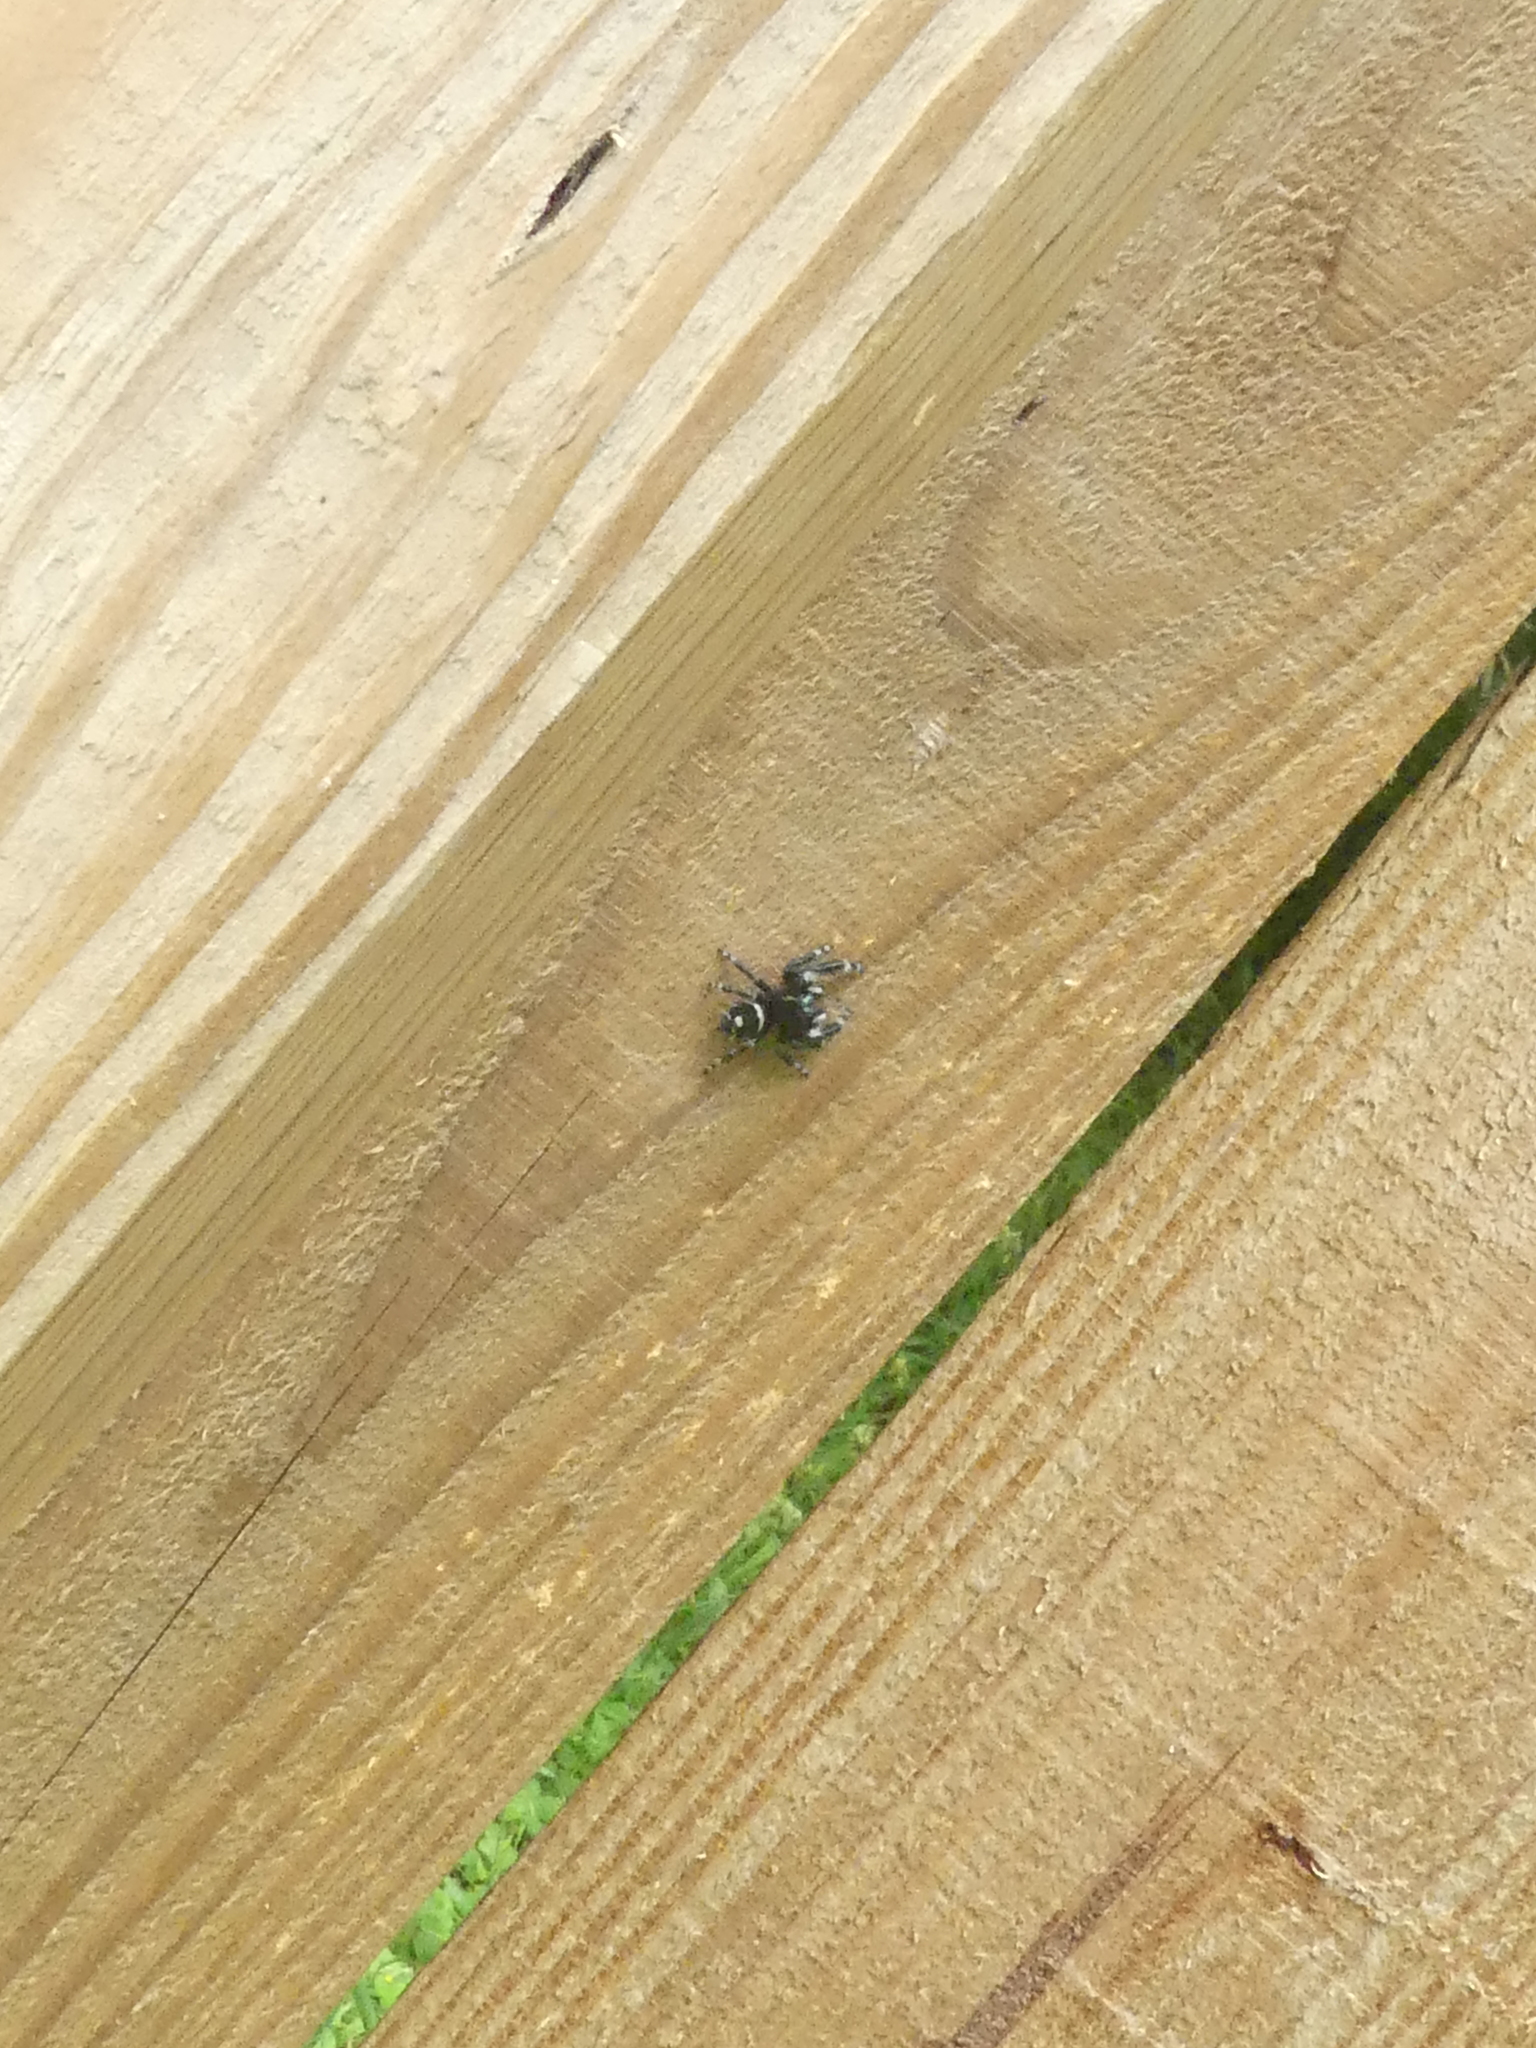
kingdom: Animalia
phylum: Arthropoda
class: Arachnida
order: Araneae
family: Salticidae
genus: Phidippus
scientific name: Phidippus audax
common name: Bold jumper
